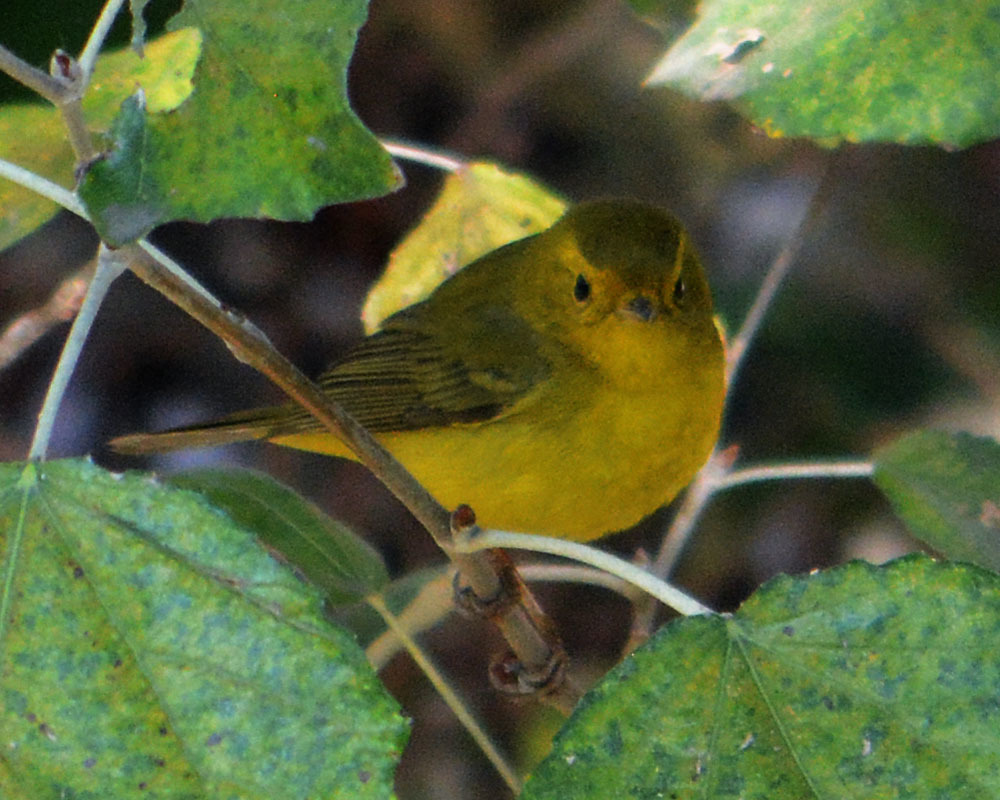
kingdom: Animalia
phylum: Chordata
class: Aves
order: Passeriformes
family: Parulidae
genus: Cardellina
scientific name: Cardellina pusilla
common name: Wilson's warbler
